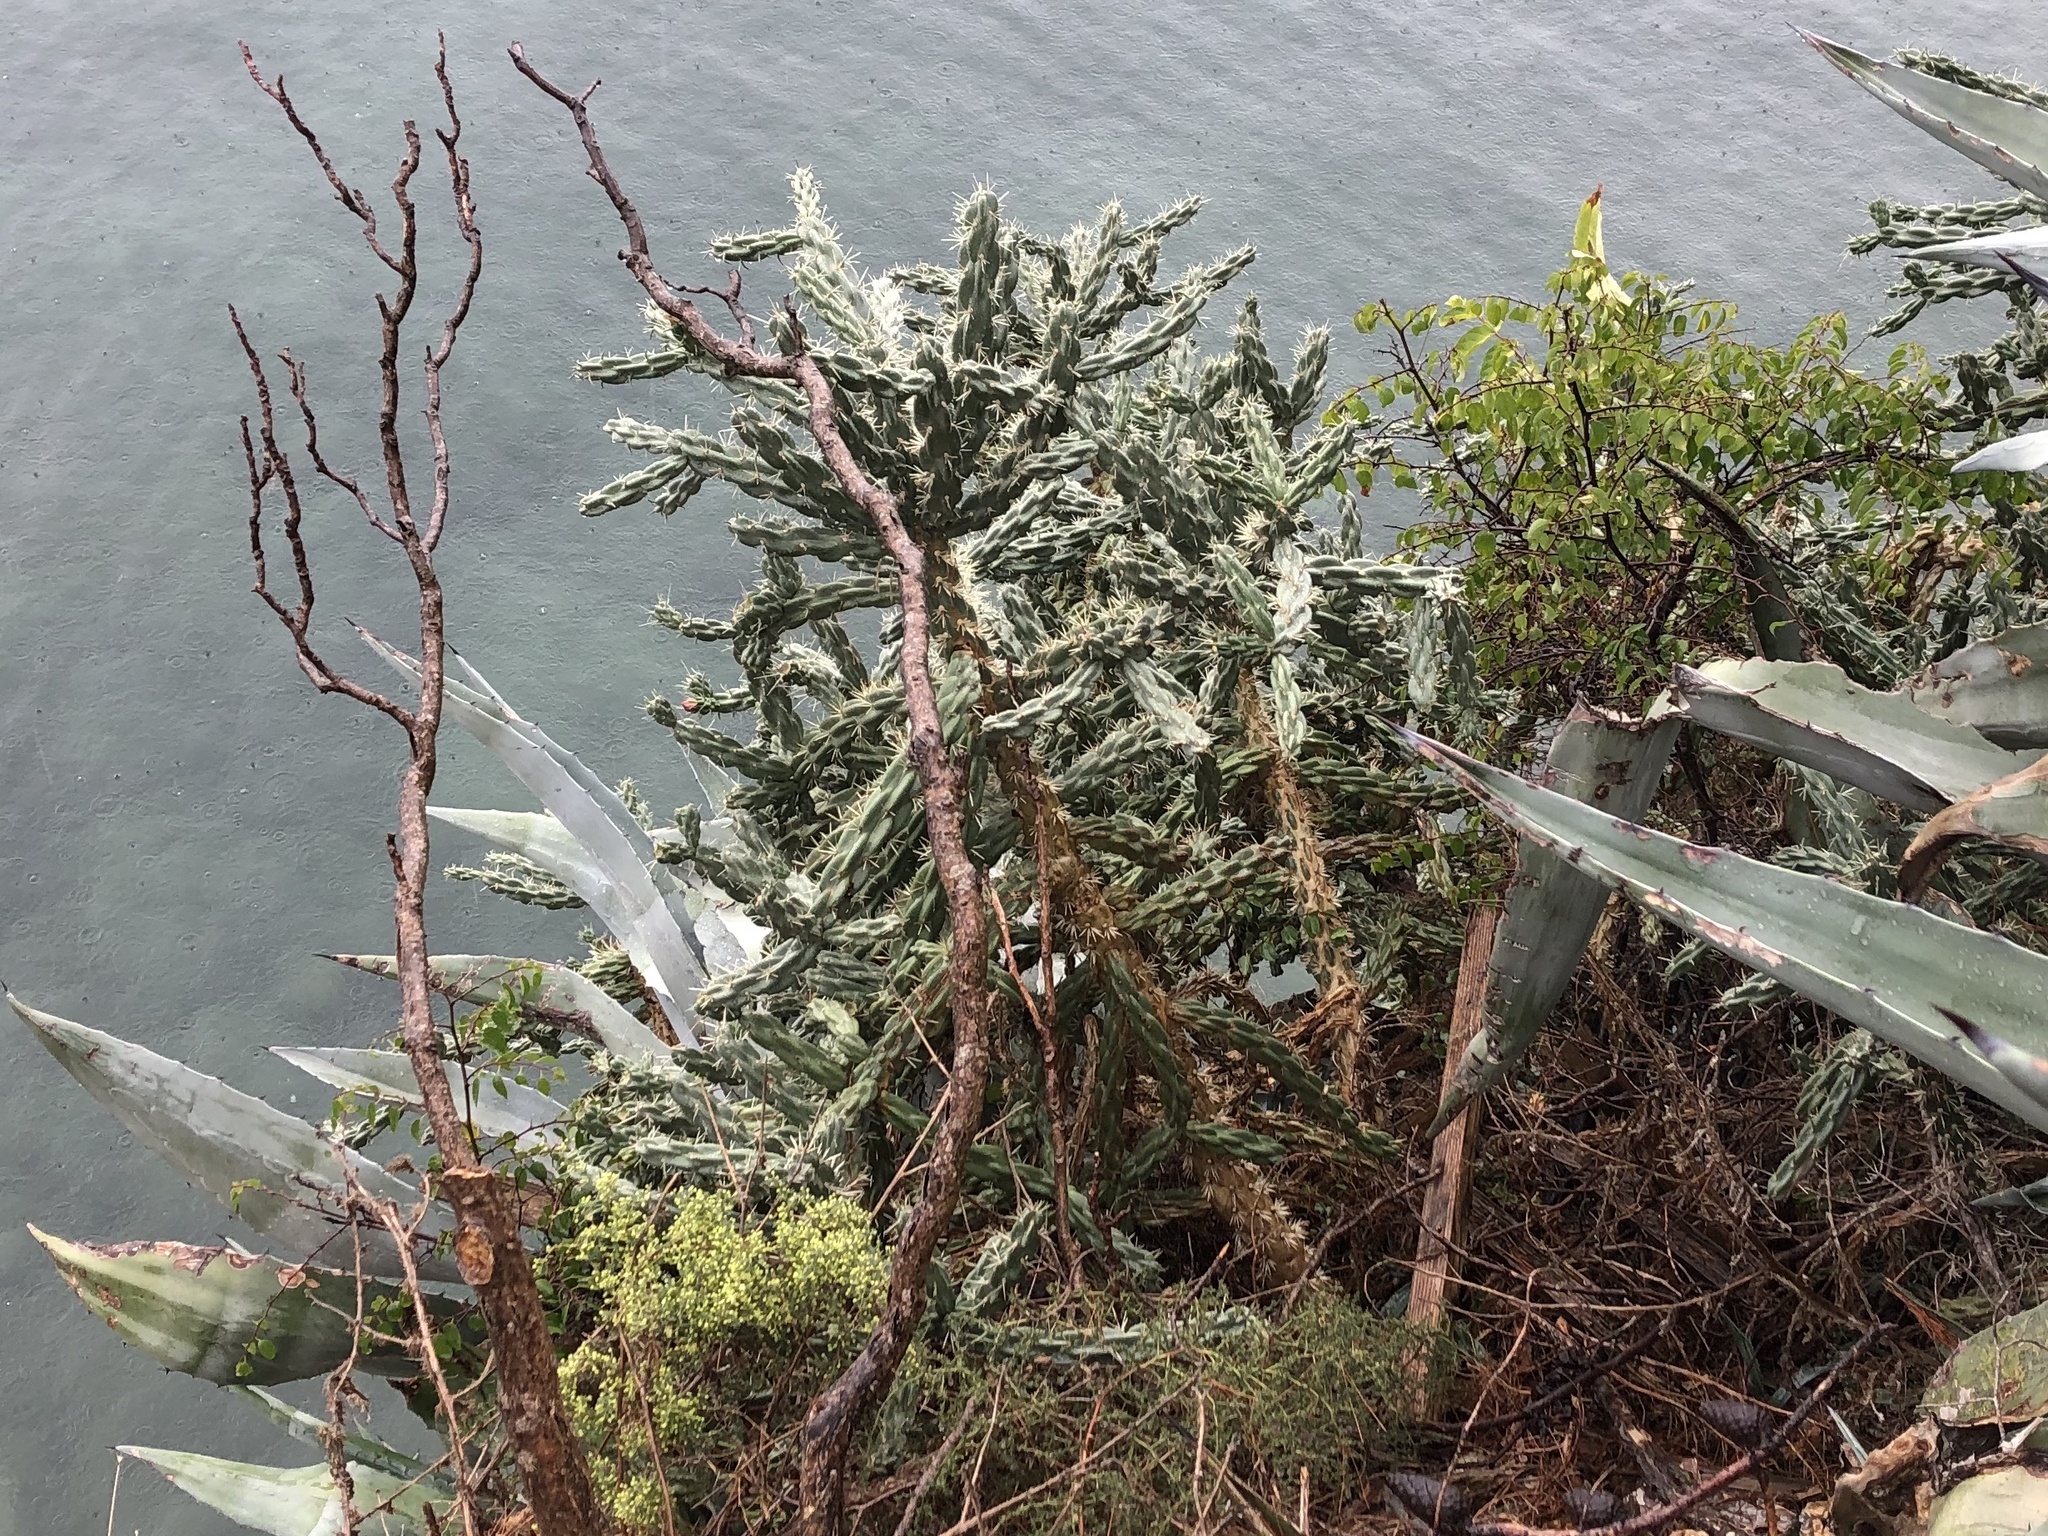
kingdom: Plantae
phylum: Tracheophyta
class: Magnoliopsida
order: Caryophyllales
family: Cactaceae
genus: Cylindropuntia
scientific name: Cylindropuntia imbricata
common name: Candelabrum cactus
